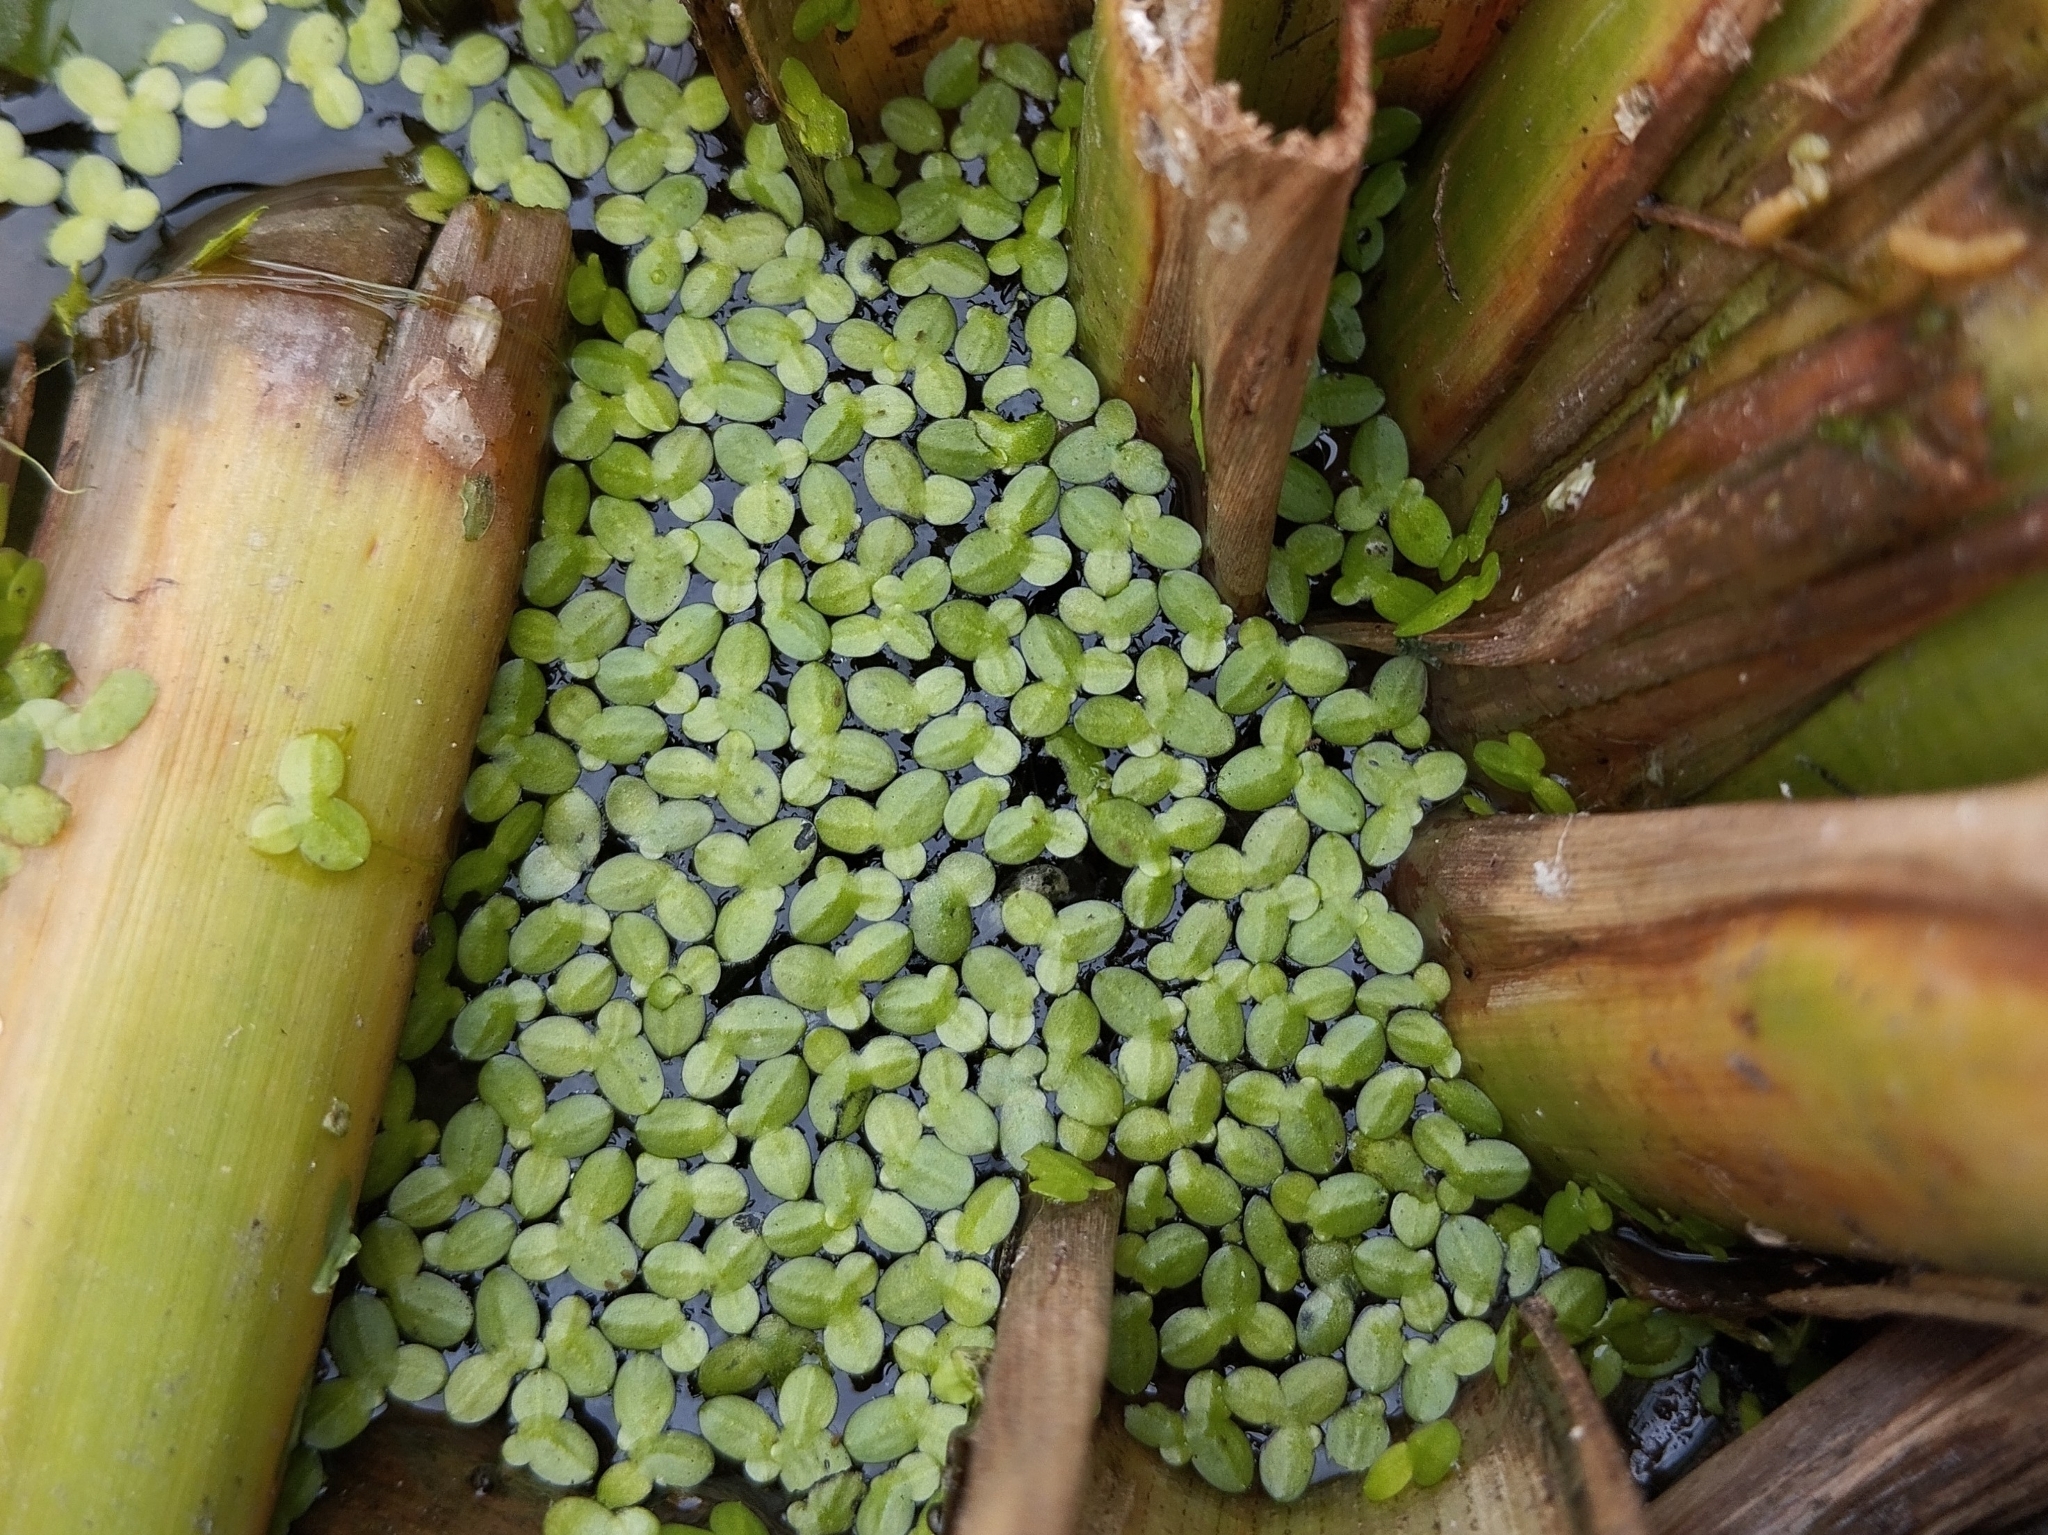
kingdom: Plantae
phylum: Tracheophyta
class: Liliopsida
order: Alismatales
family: Araceae
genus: Lemna
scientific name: Lemna minor
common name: Common duckweed
